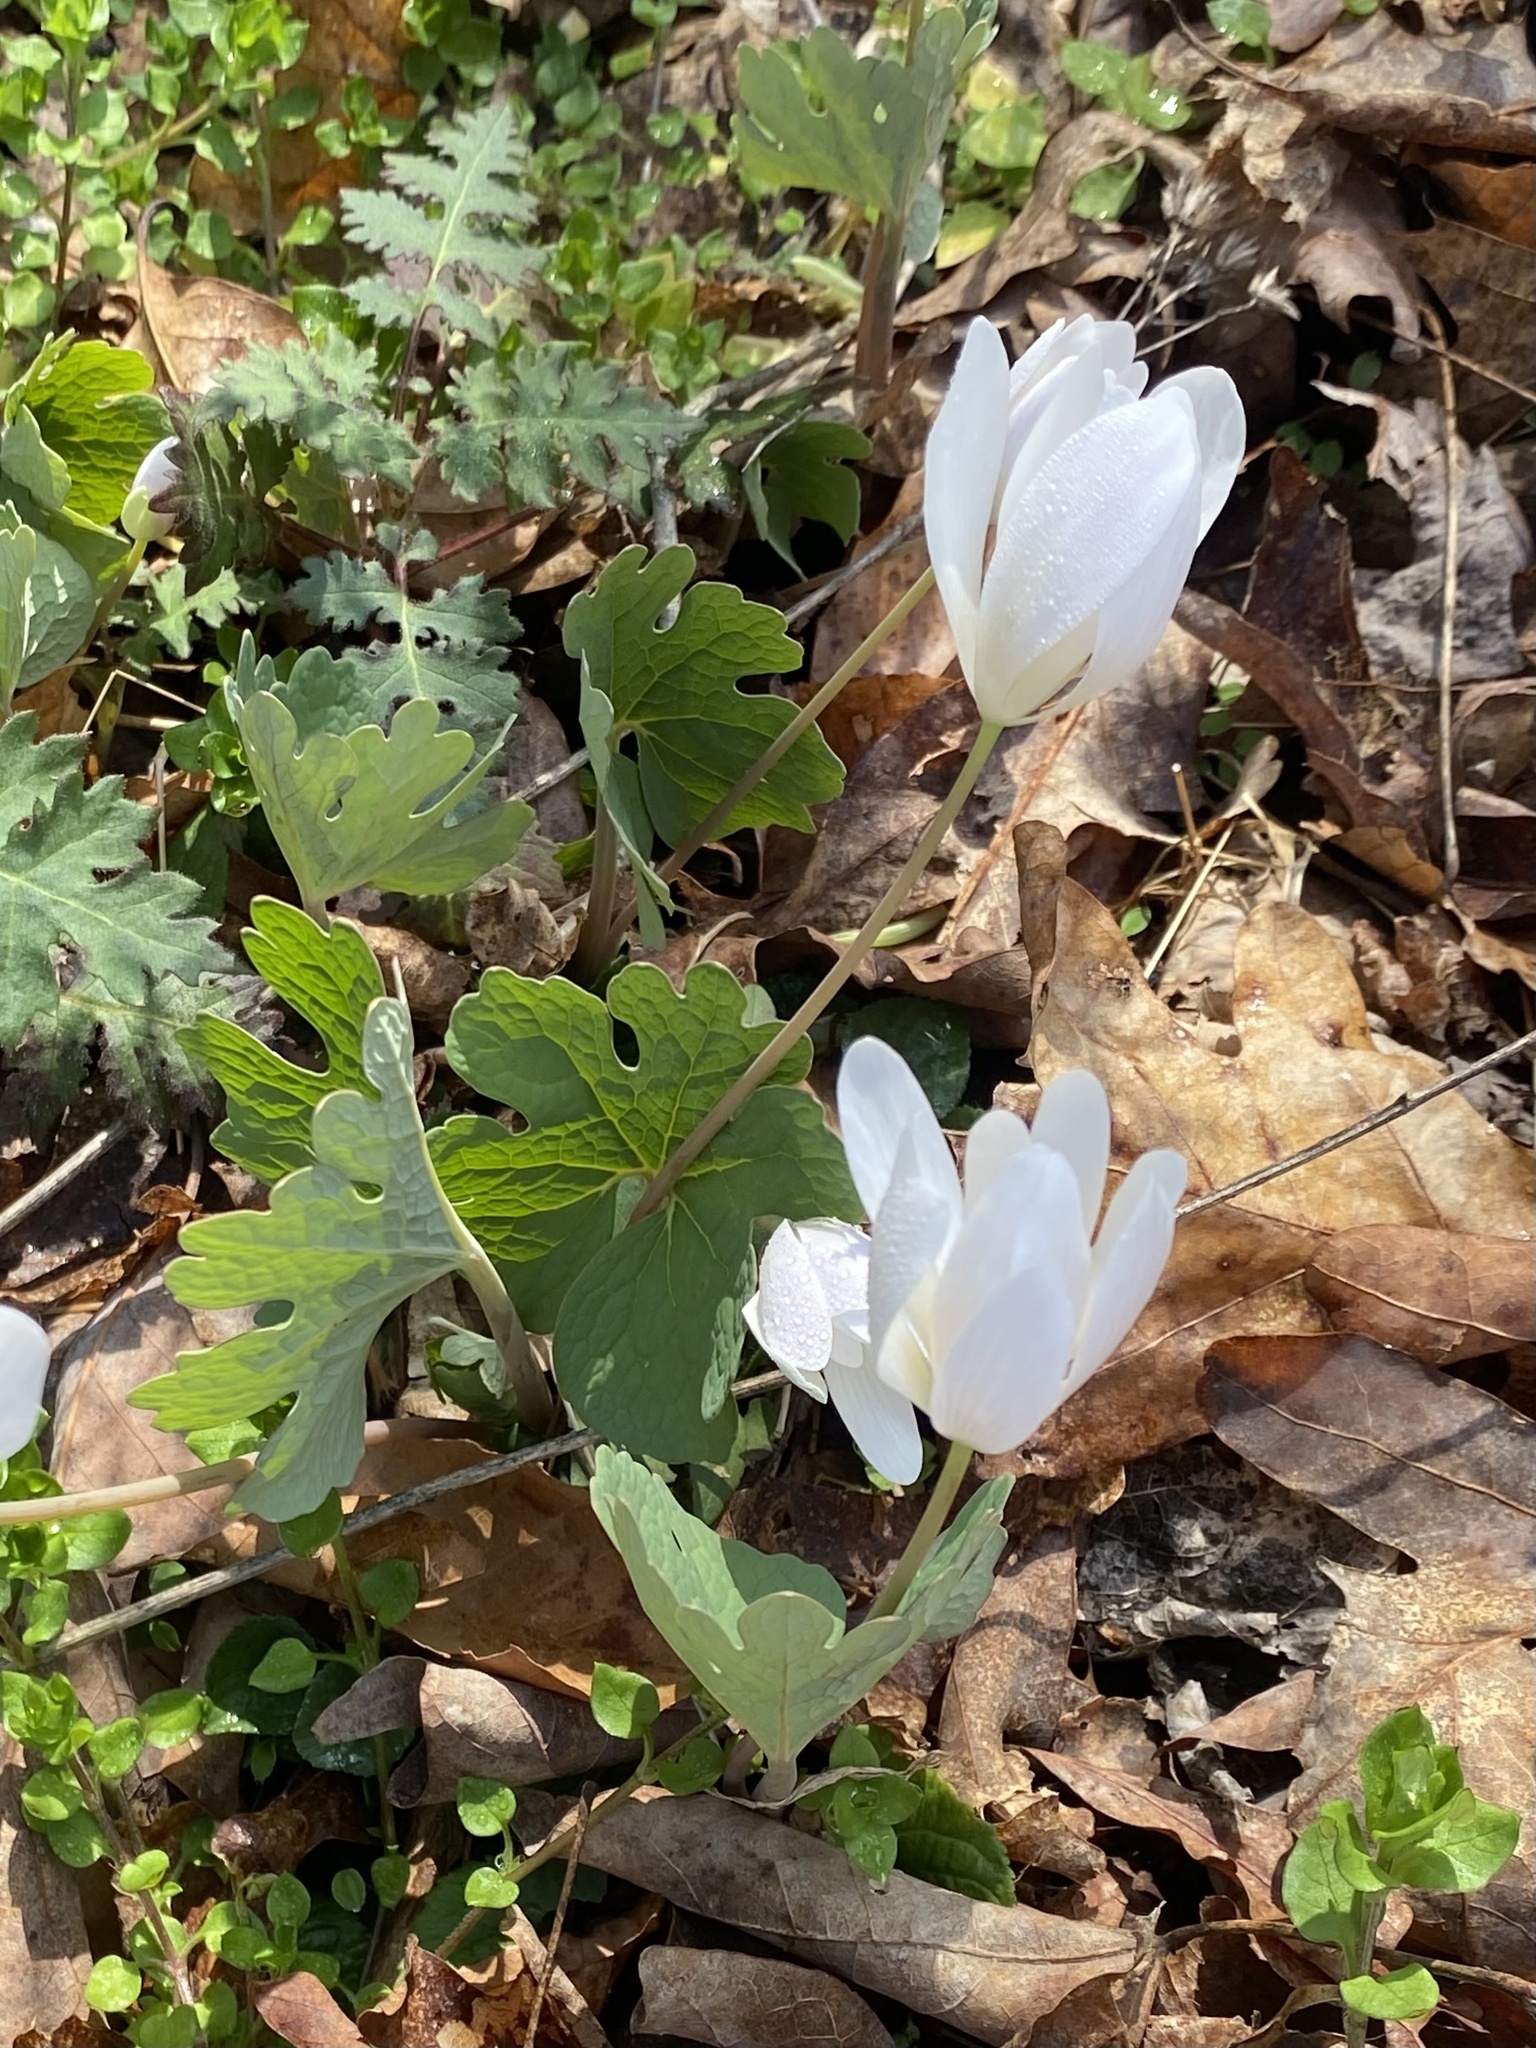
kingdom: Plantae
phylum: Tracheophyta
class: Magnoliopsida
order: Ranunculales
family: Papaveraceae
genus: Sanguinaria
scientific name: Sanguinaria canadensis
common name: Bloodroot
